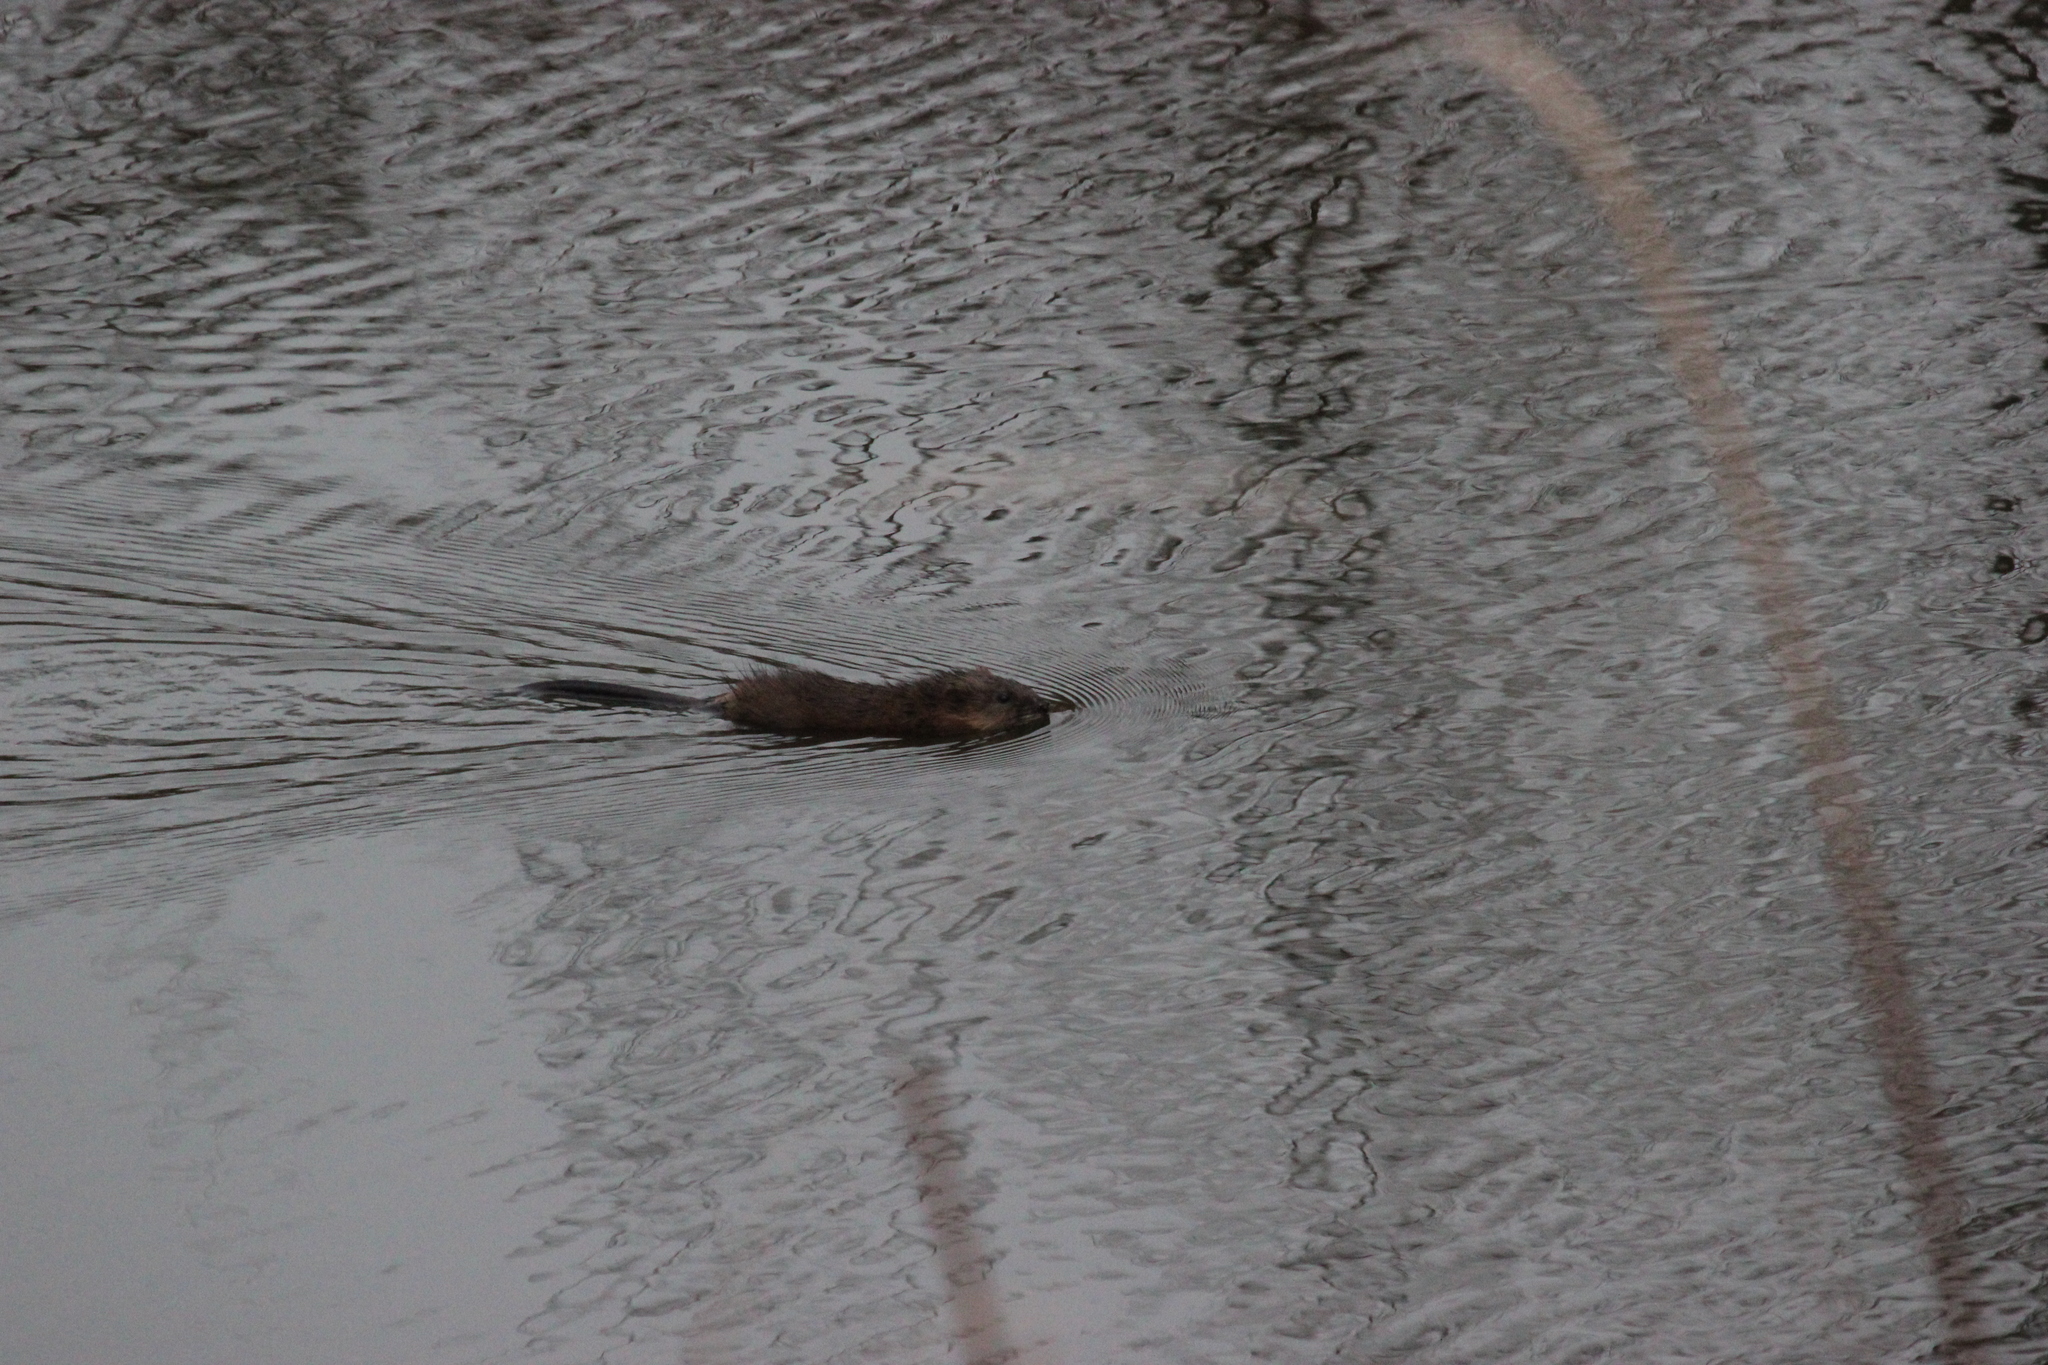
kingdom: Animalia
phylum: Chordata
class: Mammalia
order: Rodentia
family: Cricetidae
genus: Ondatra
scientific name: Ondatra zibethicus
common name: Muskrat
